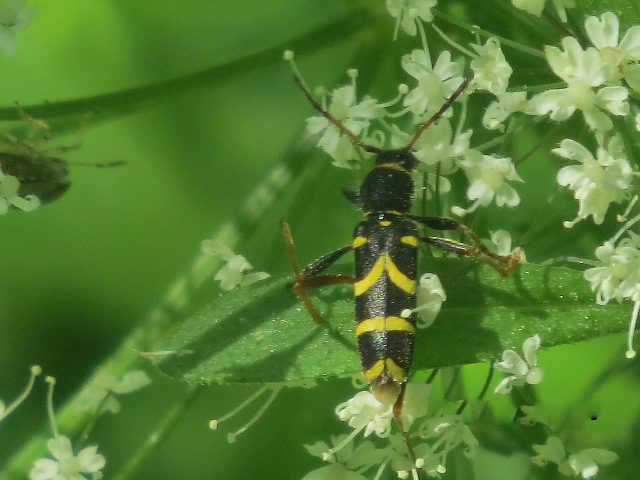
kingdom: Animalia
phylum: Arthropoda
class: Insecta
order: Coleoptera
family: Cerambycidae
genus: Clytus
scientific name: Clytus arietis
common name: Wasp beetle
